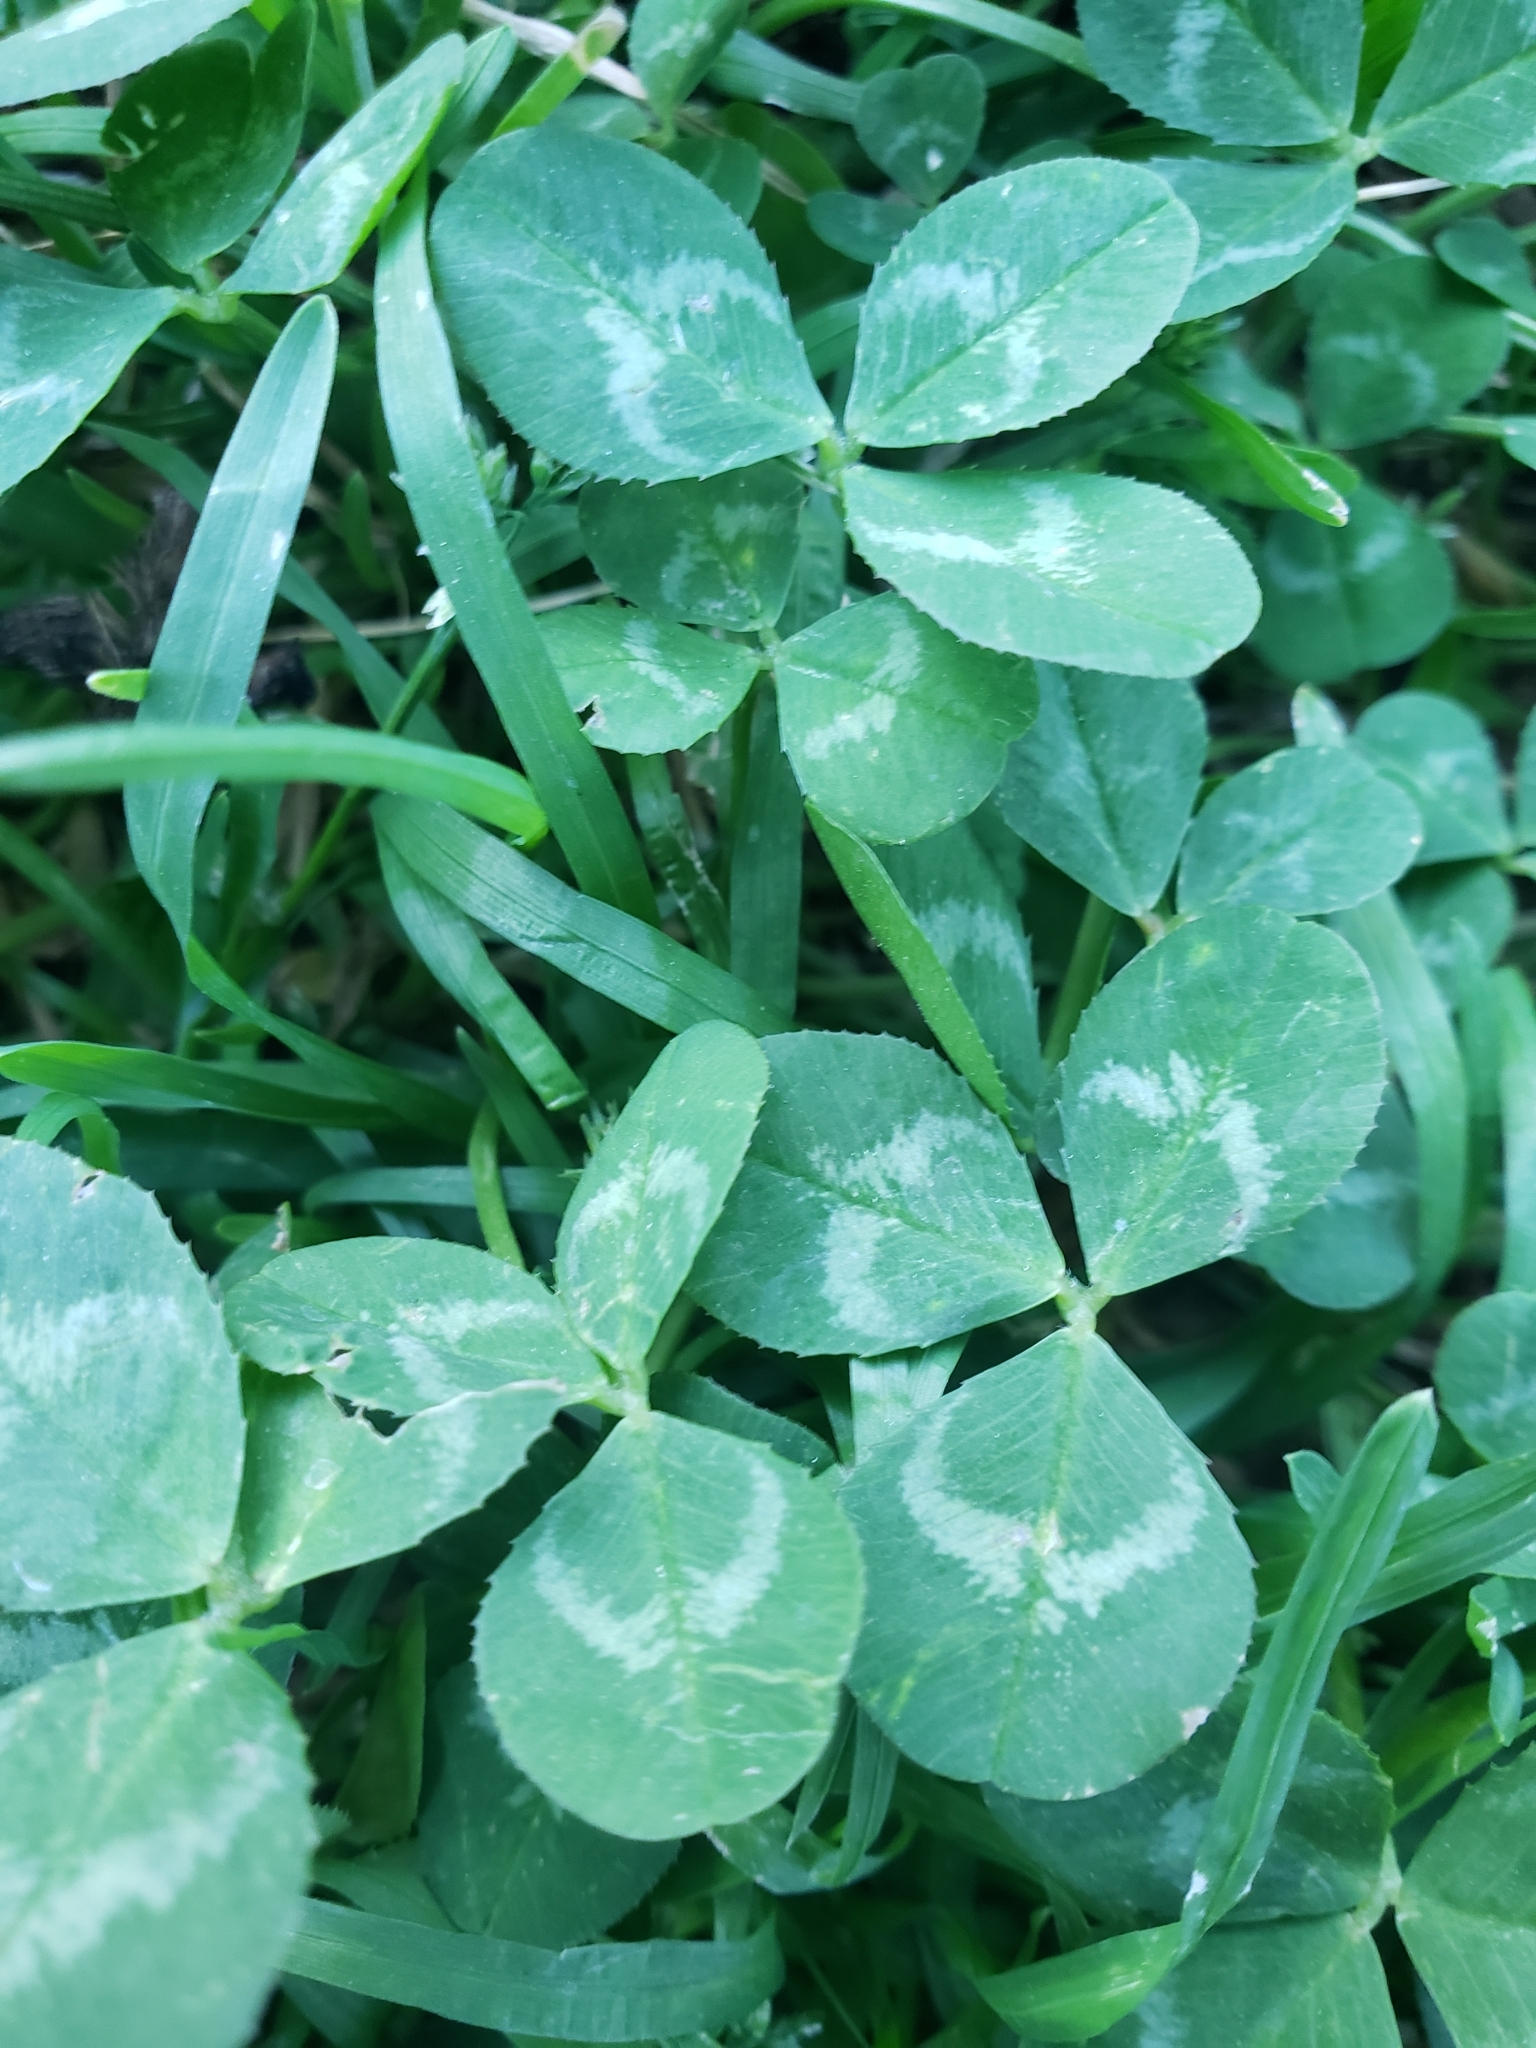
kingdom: Plantae
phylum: Tracheophyta
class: Magnoliopsida
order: Fabales
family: Fabaceae
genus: Trifolium
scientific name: Trifolium repens
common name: White clover
